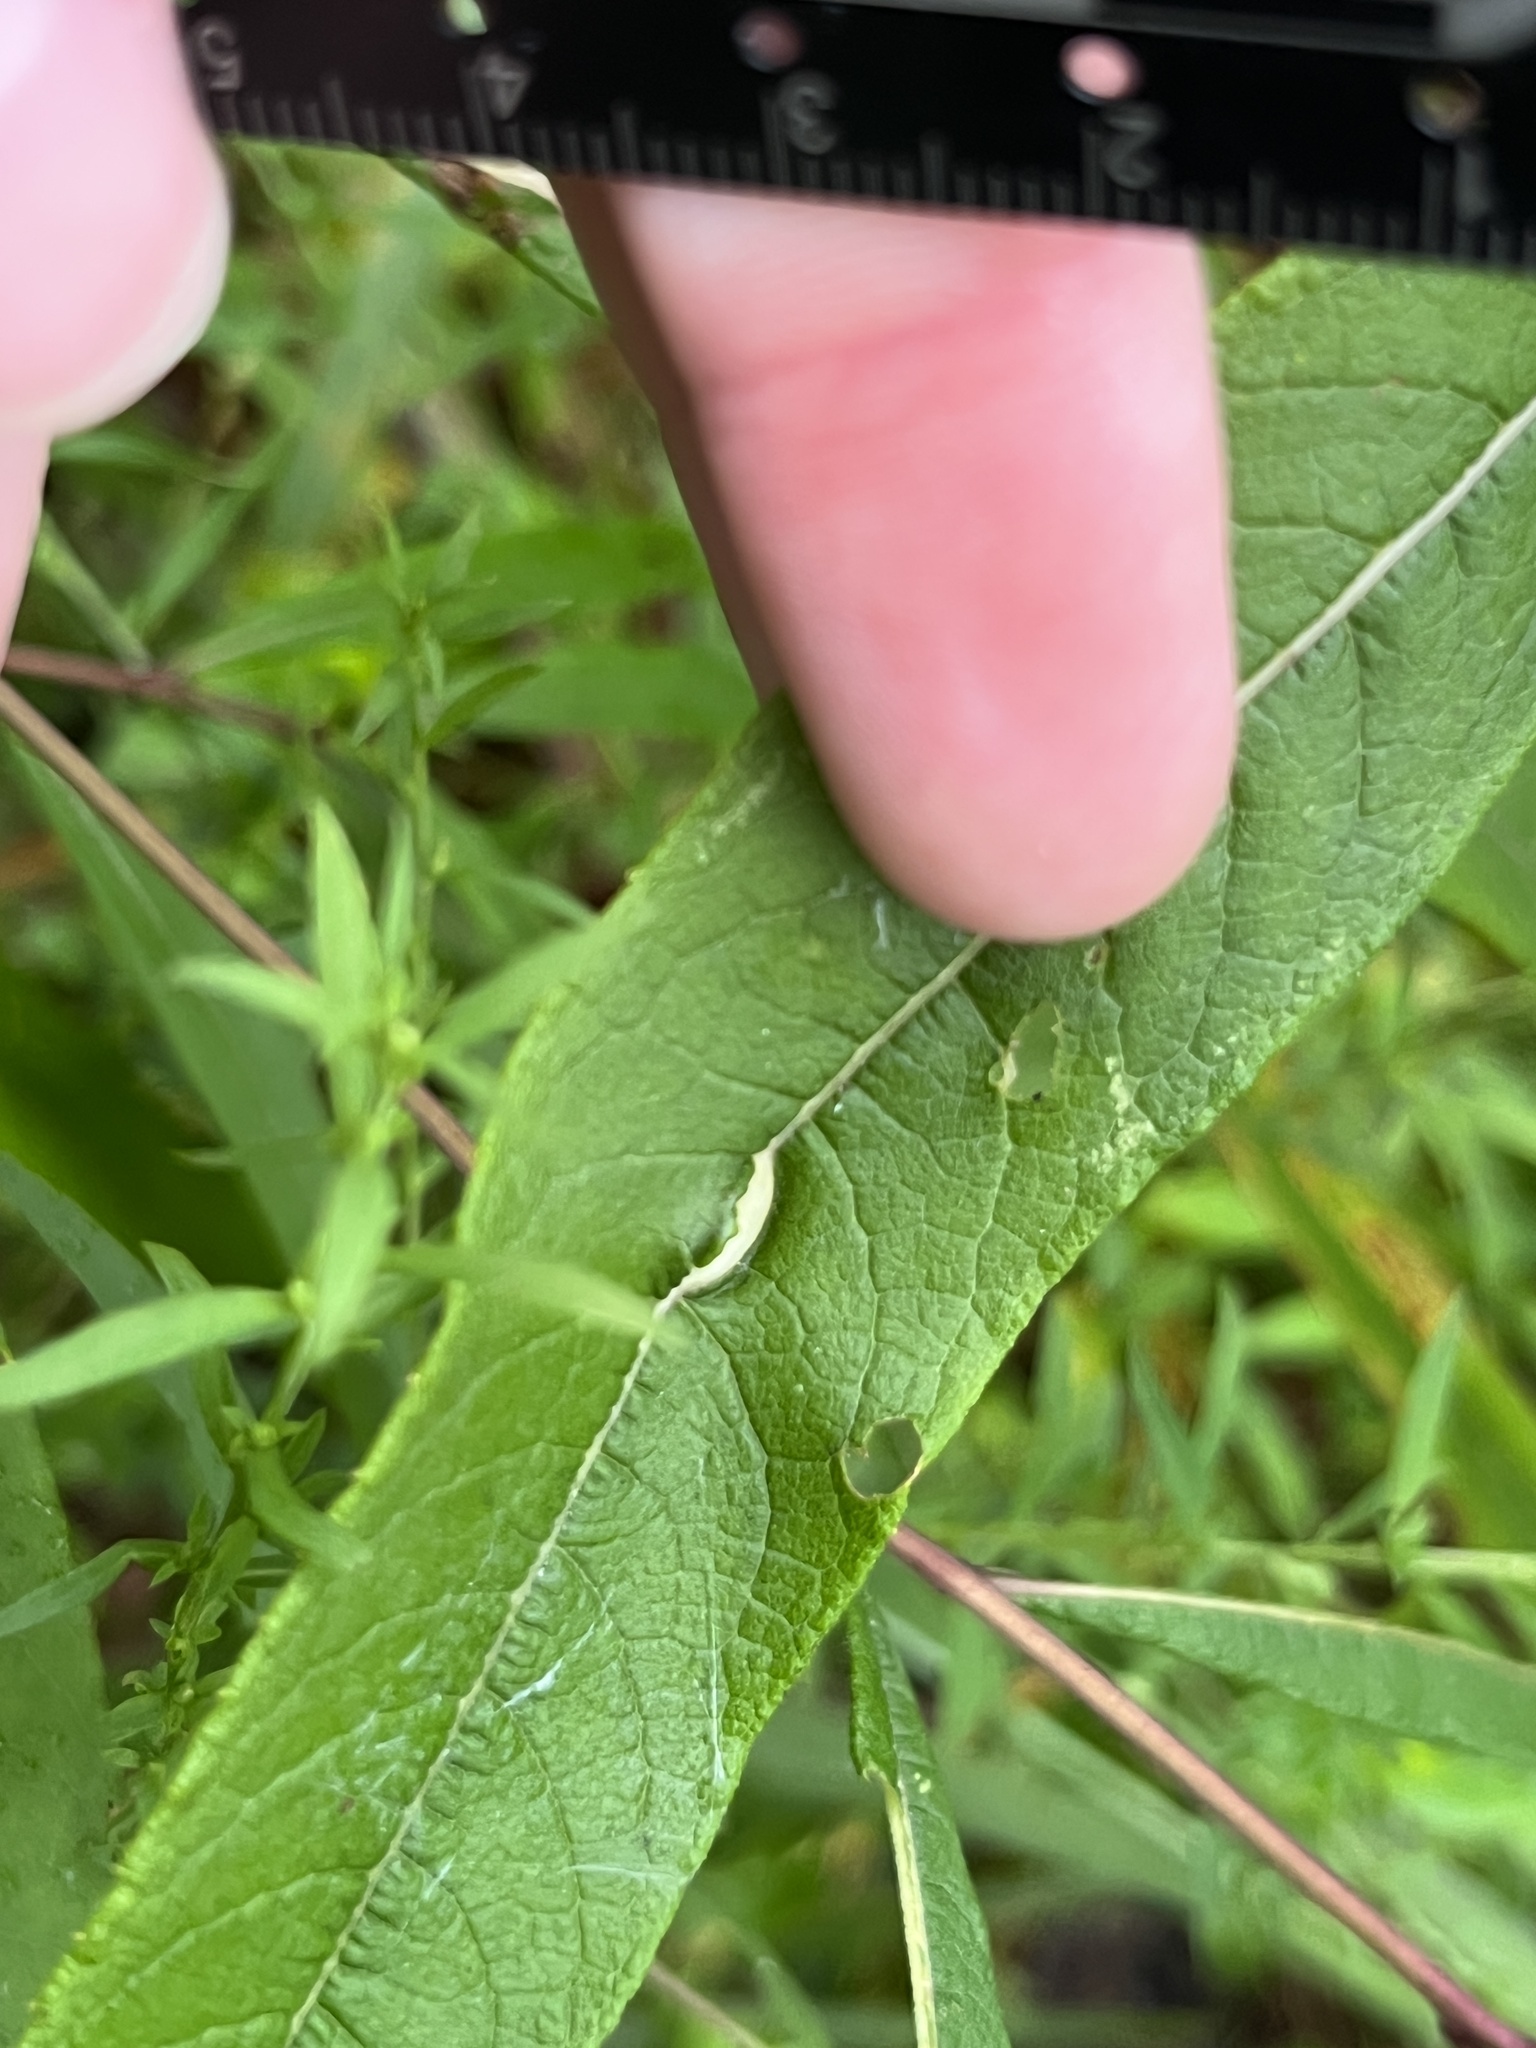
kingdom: Animalia
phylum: Arthropoda
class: Insecta
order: Diptera
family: Cecidomyiidae
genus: Neolasioptera
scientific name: Neolasioptera vernoniae
